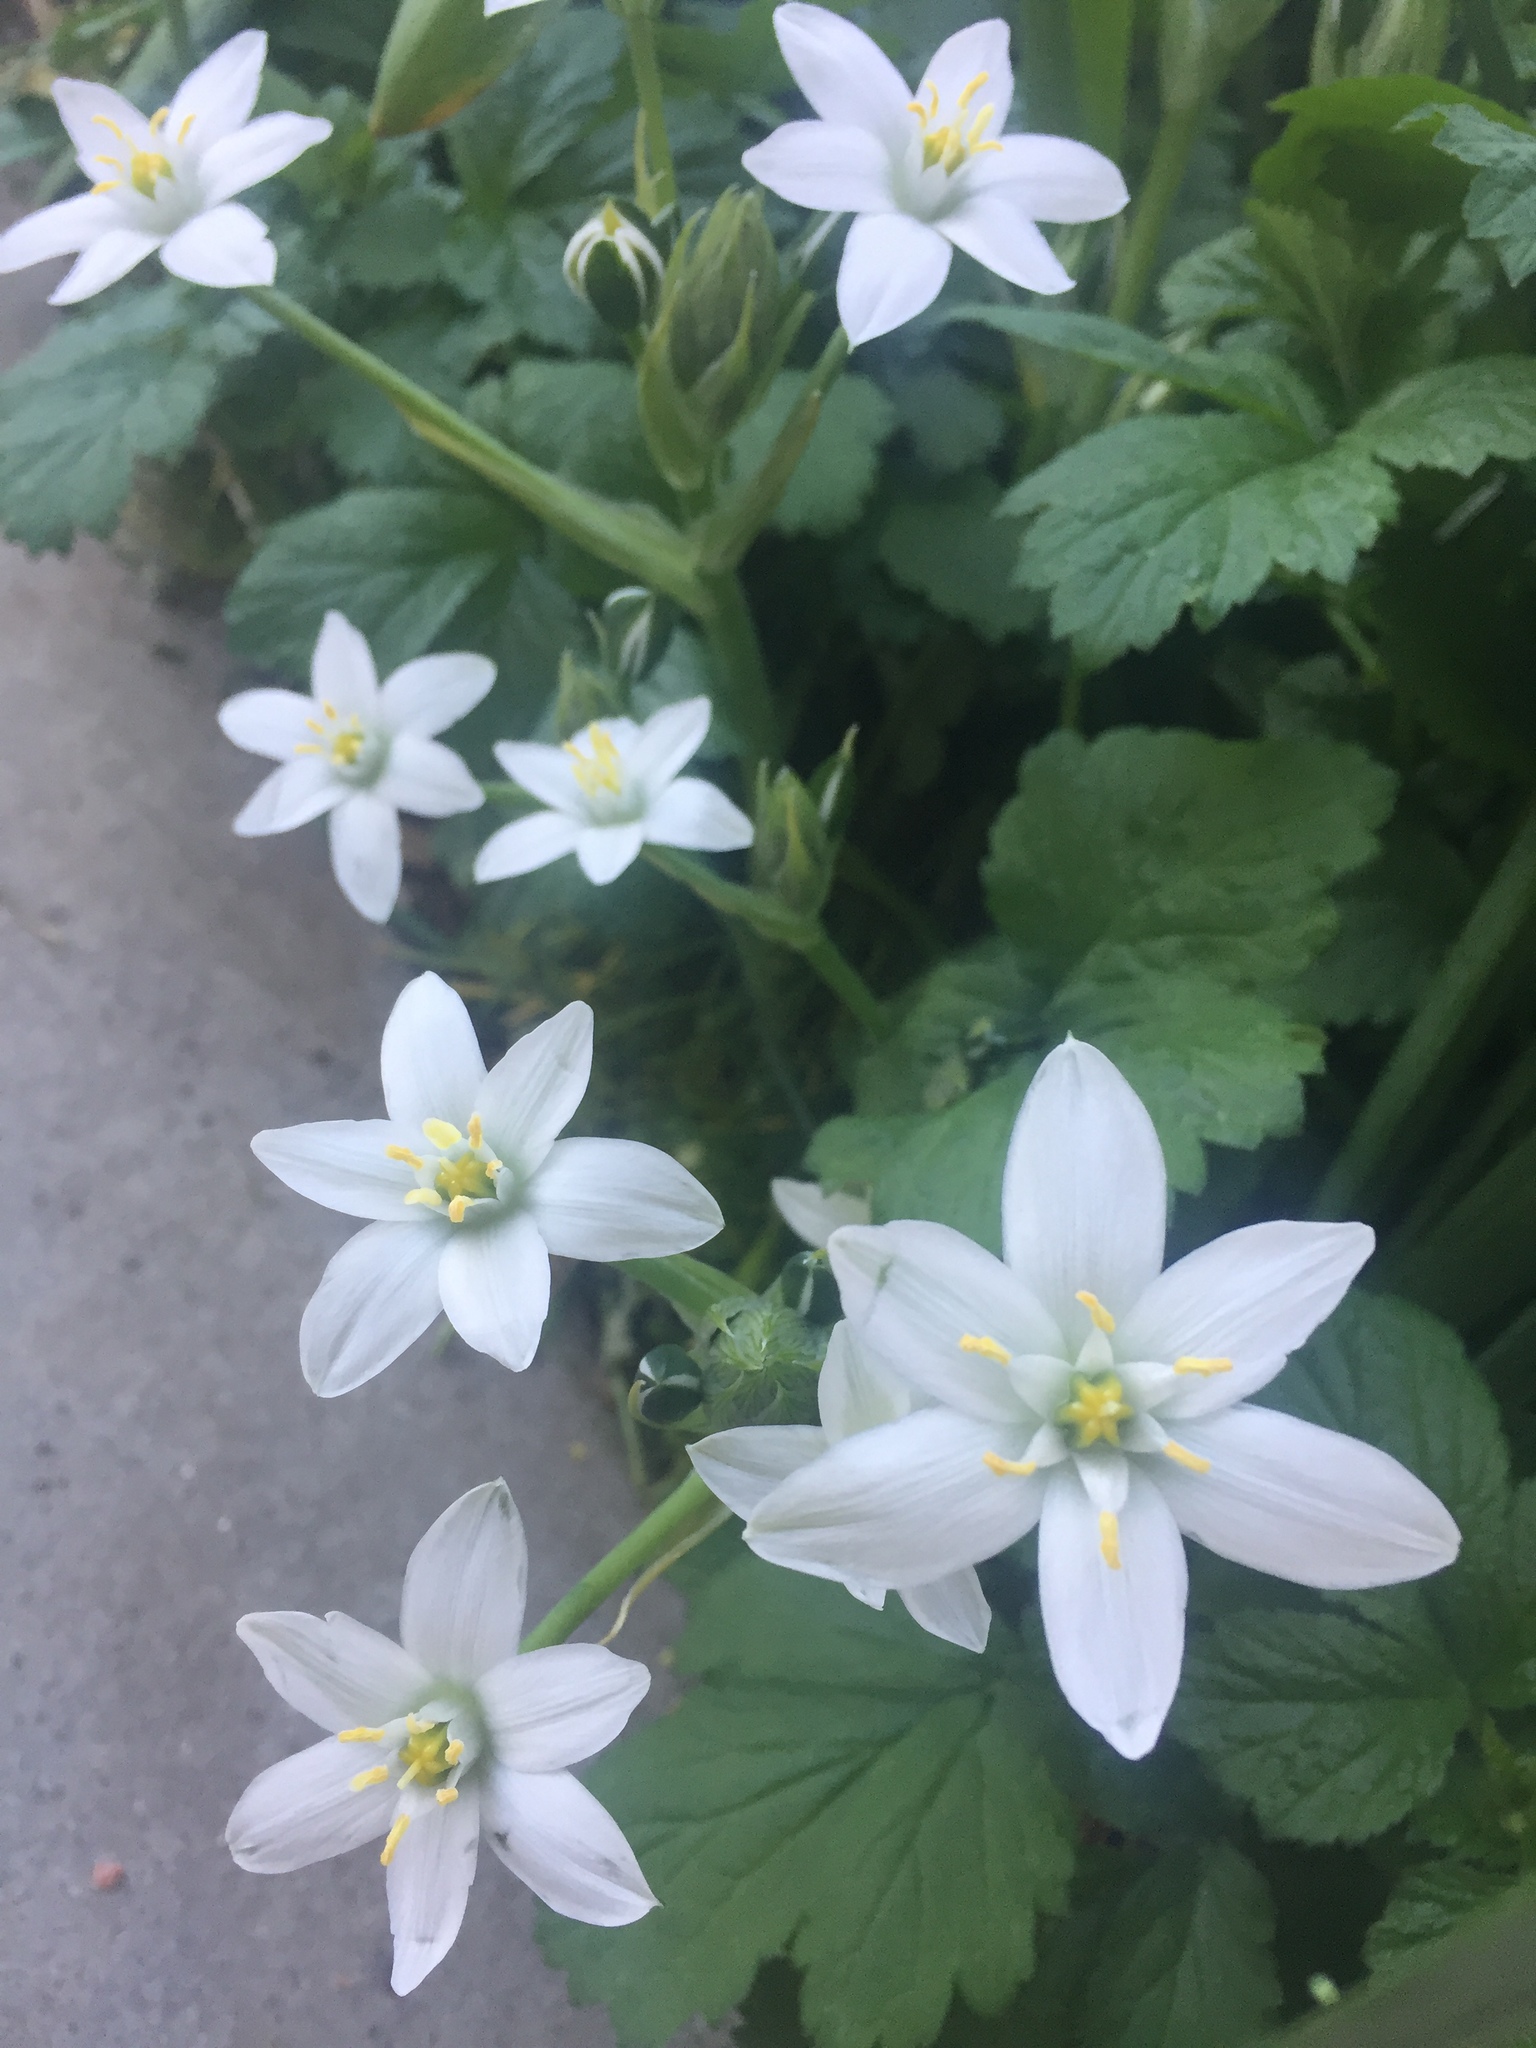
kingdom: Plantae
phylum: Tracheophyta
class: Liliopsida
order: Asparagales
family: Asparagaceae
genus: Ornithogalum
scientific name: Ornithogalum umbellatum
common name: Garden star-of-bethlehem
